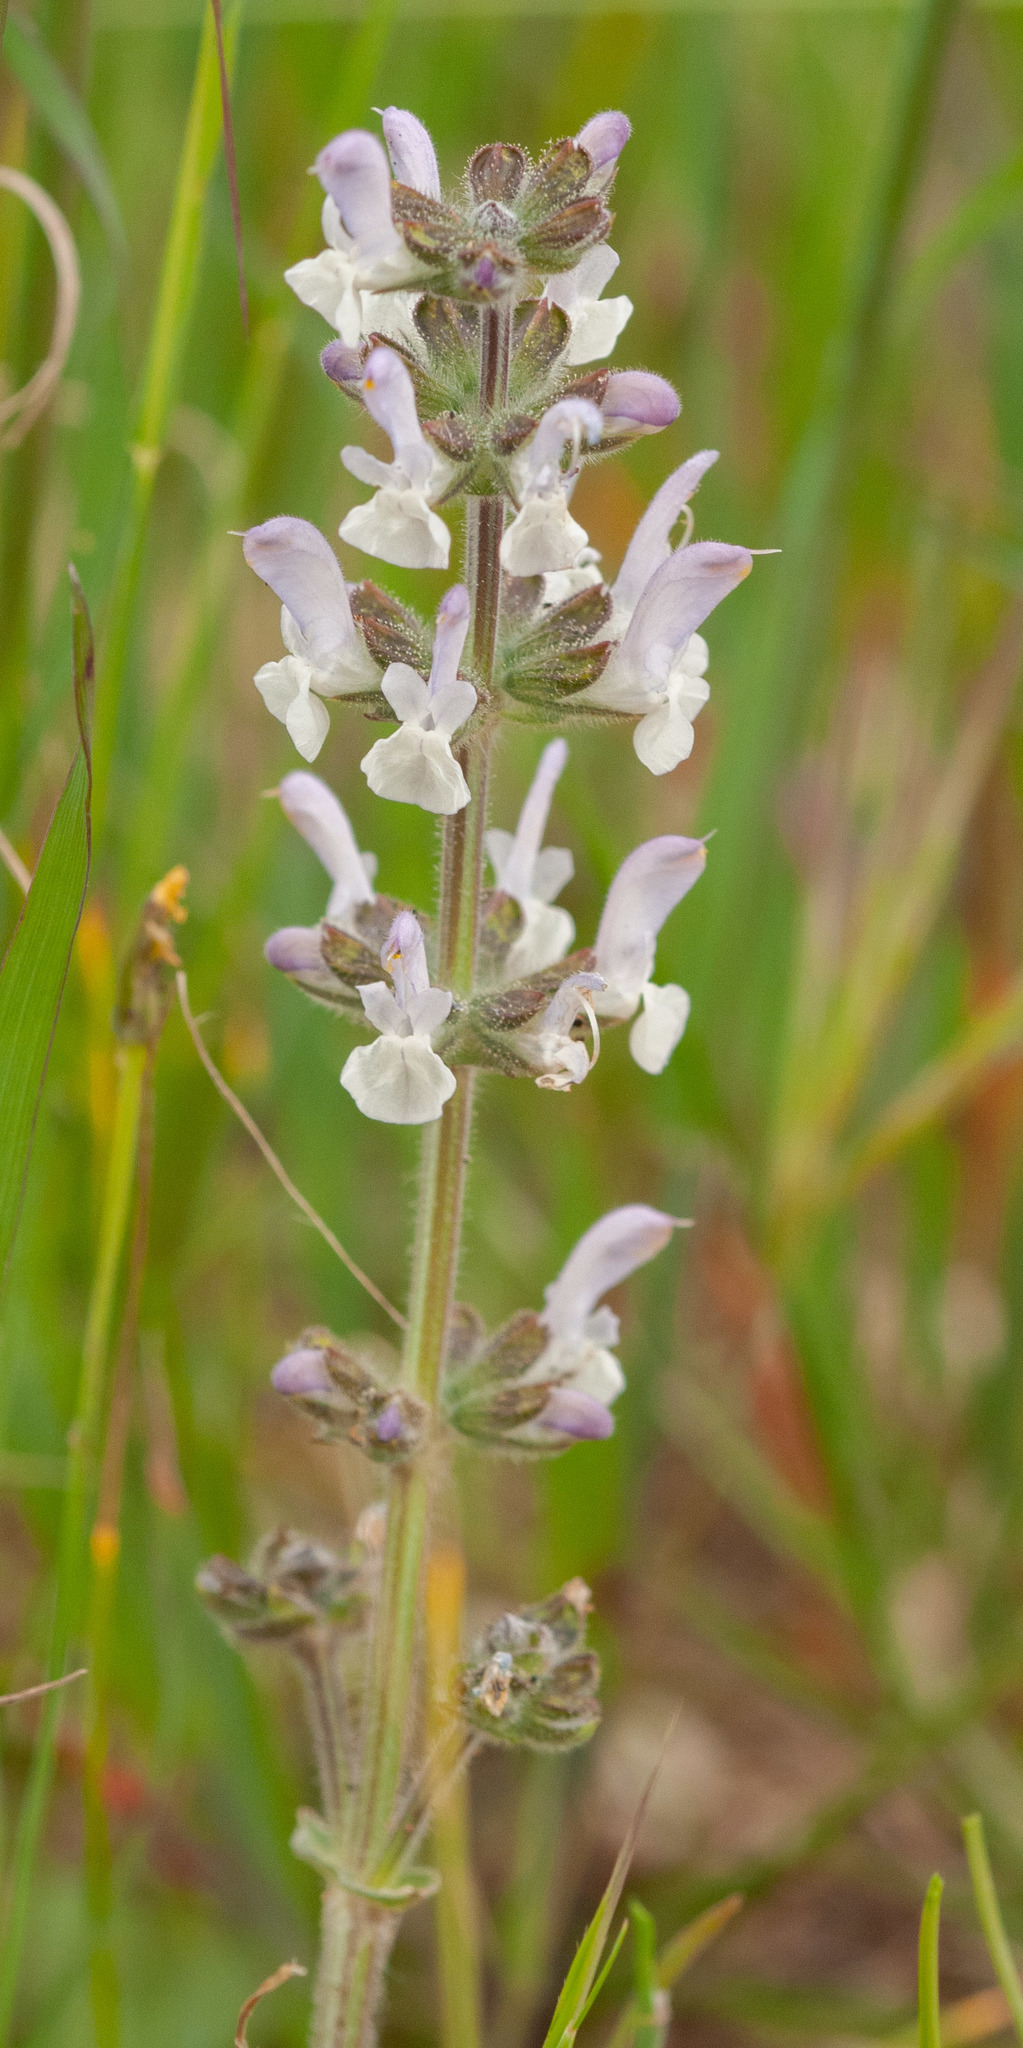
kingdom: Plantae
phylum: Tracheophyta
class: Magnoliopsida
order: Lamiales
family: Lamiaceae
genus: Salvia
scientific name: Salvia verbenaca
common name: Wild clary
